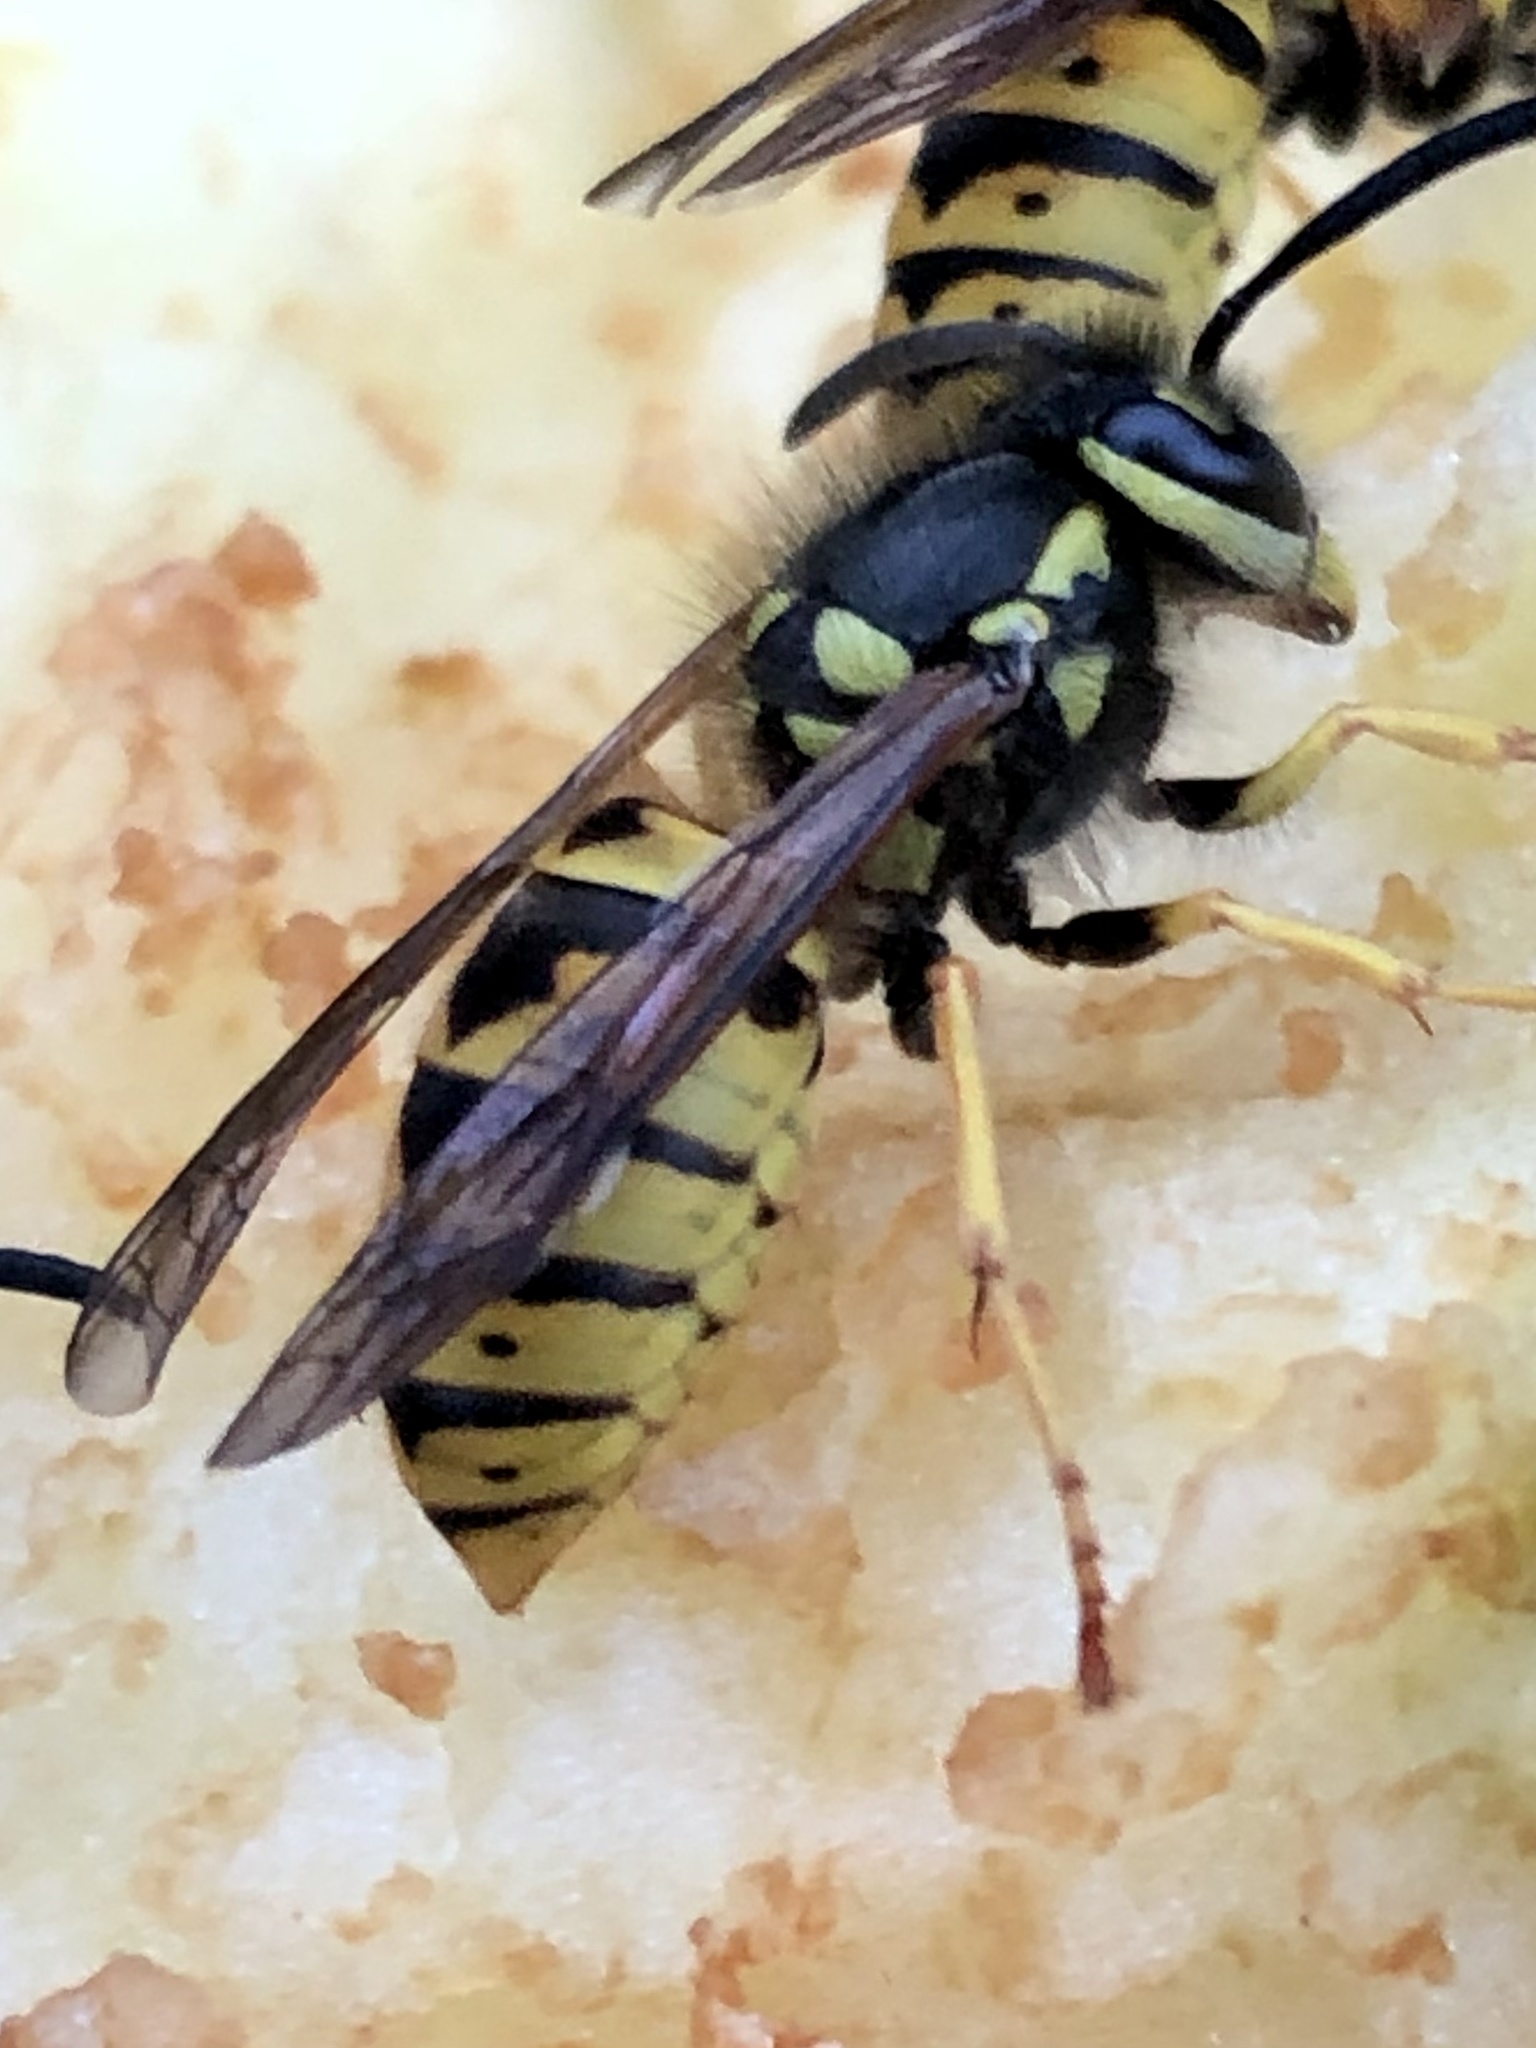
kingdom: Animalia
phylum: Arthropoda
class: Insecta
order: Hymenoptera
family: Vespidae
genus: Vespula
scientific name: Vespula germanica
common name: German wasp
